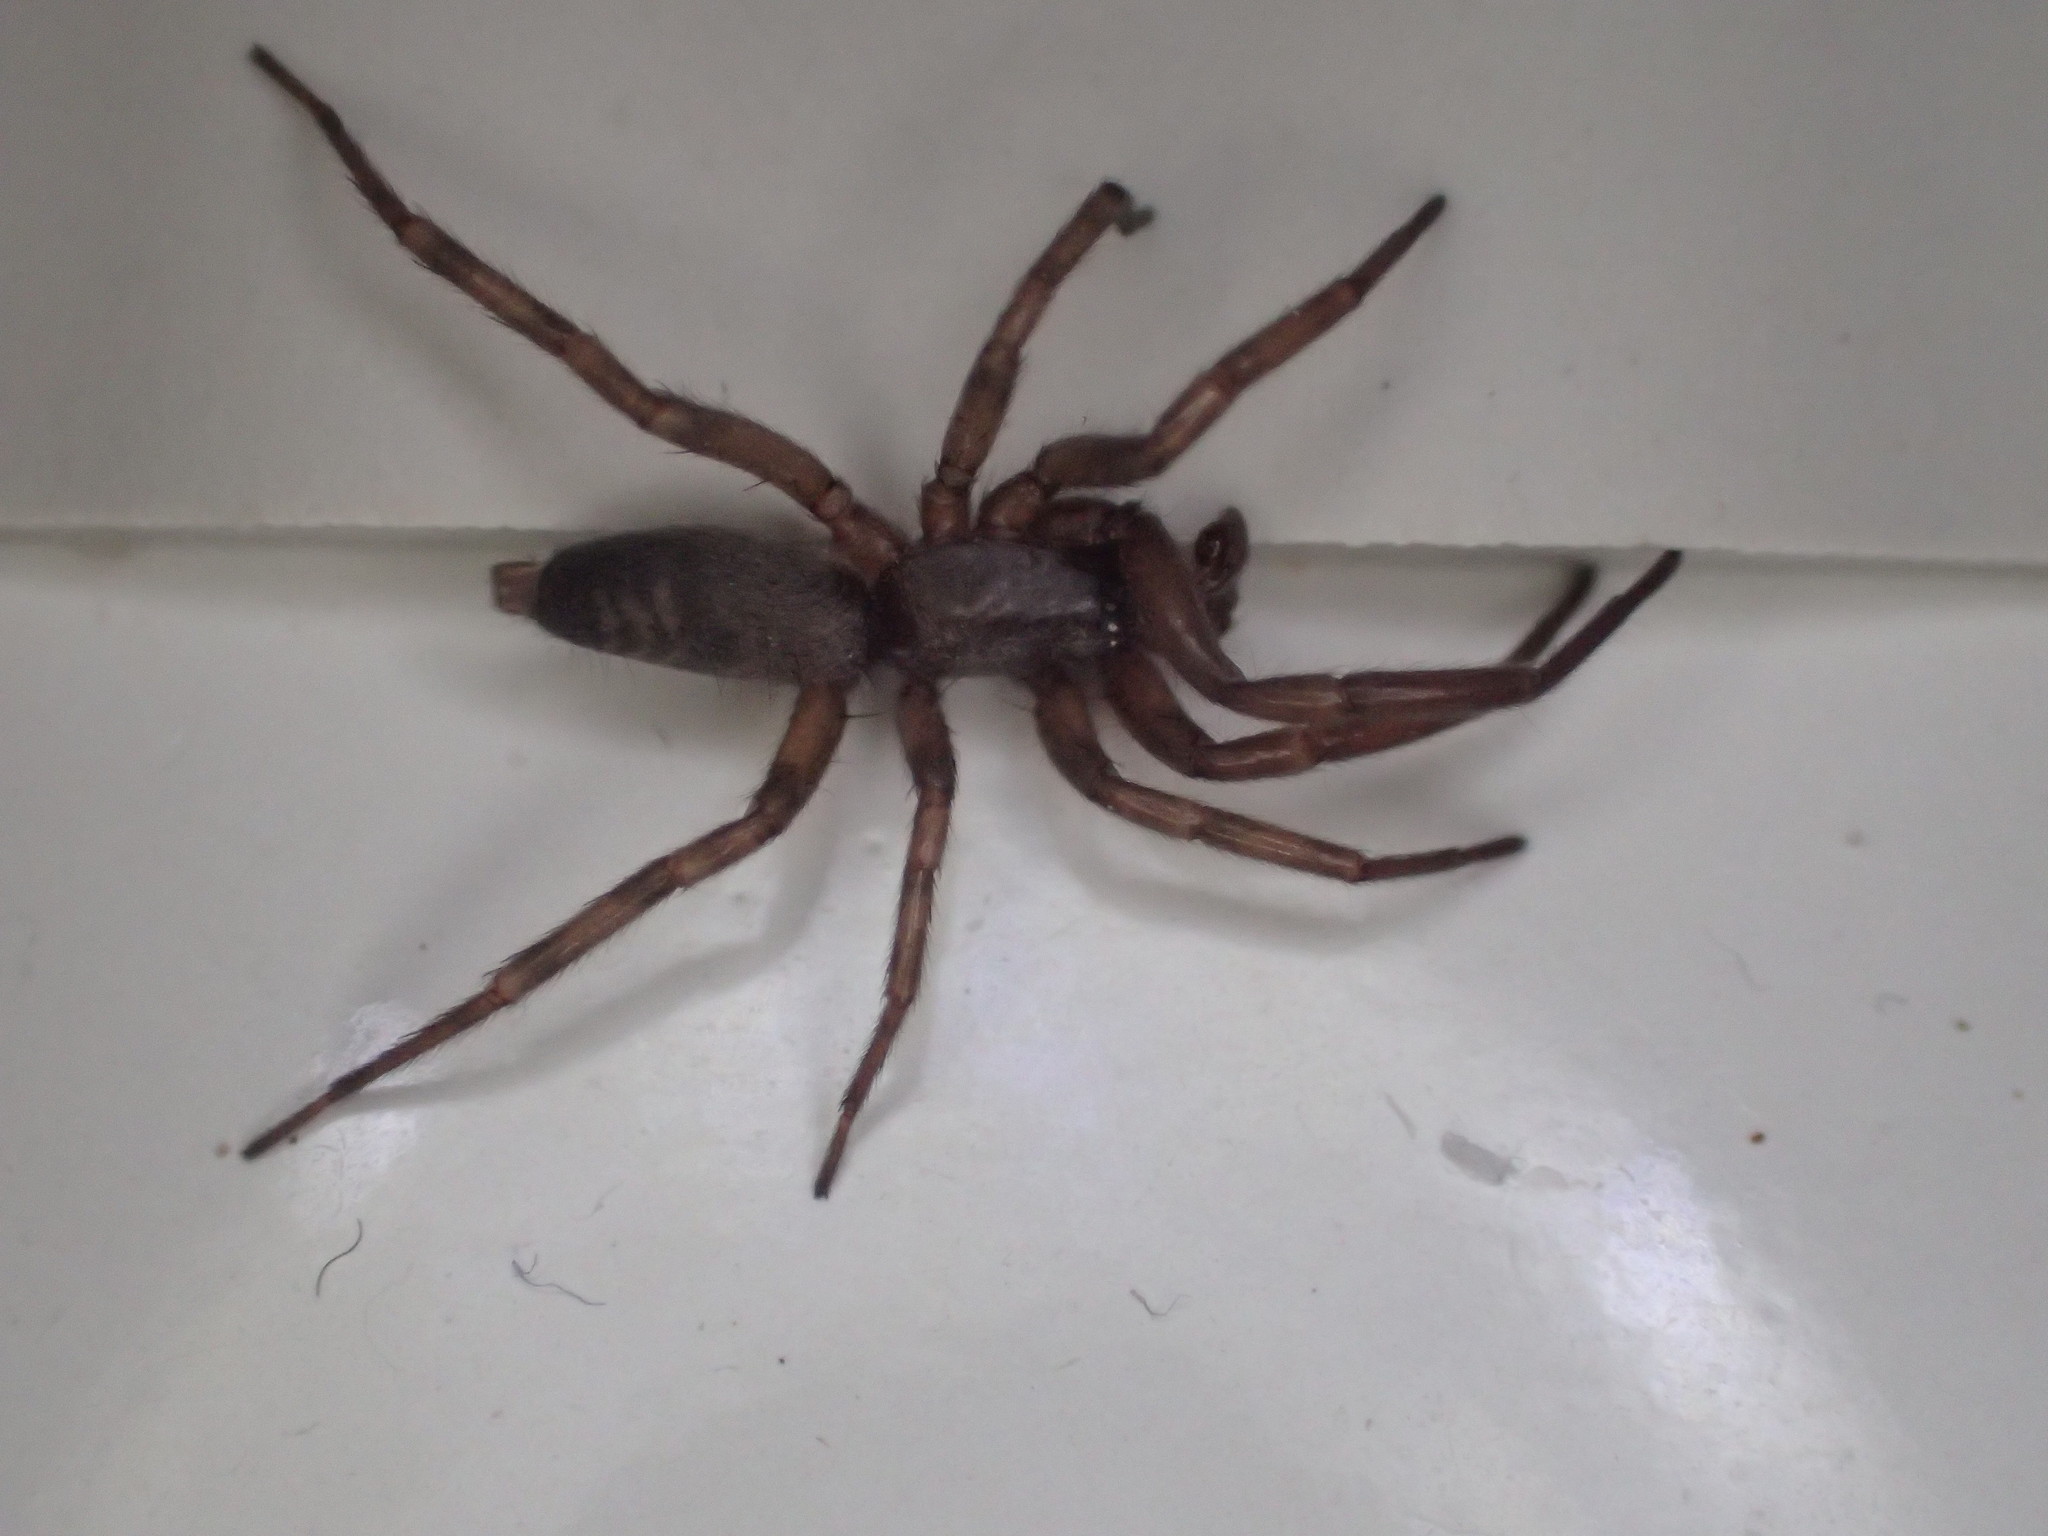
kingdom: Animalia
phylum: Arthropoda
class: Arachnida
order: Araneae
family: Gnaphosidae
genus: Intruda
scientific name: Intruda signata
